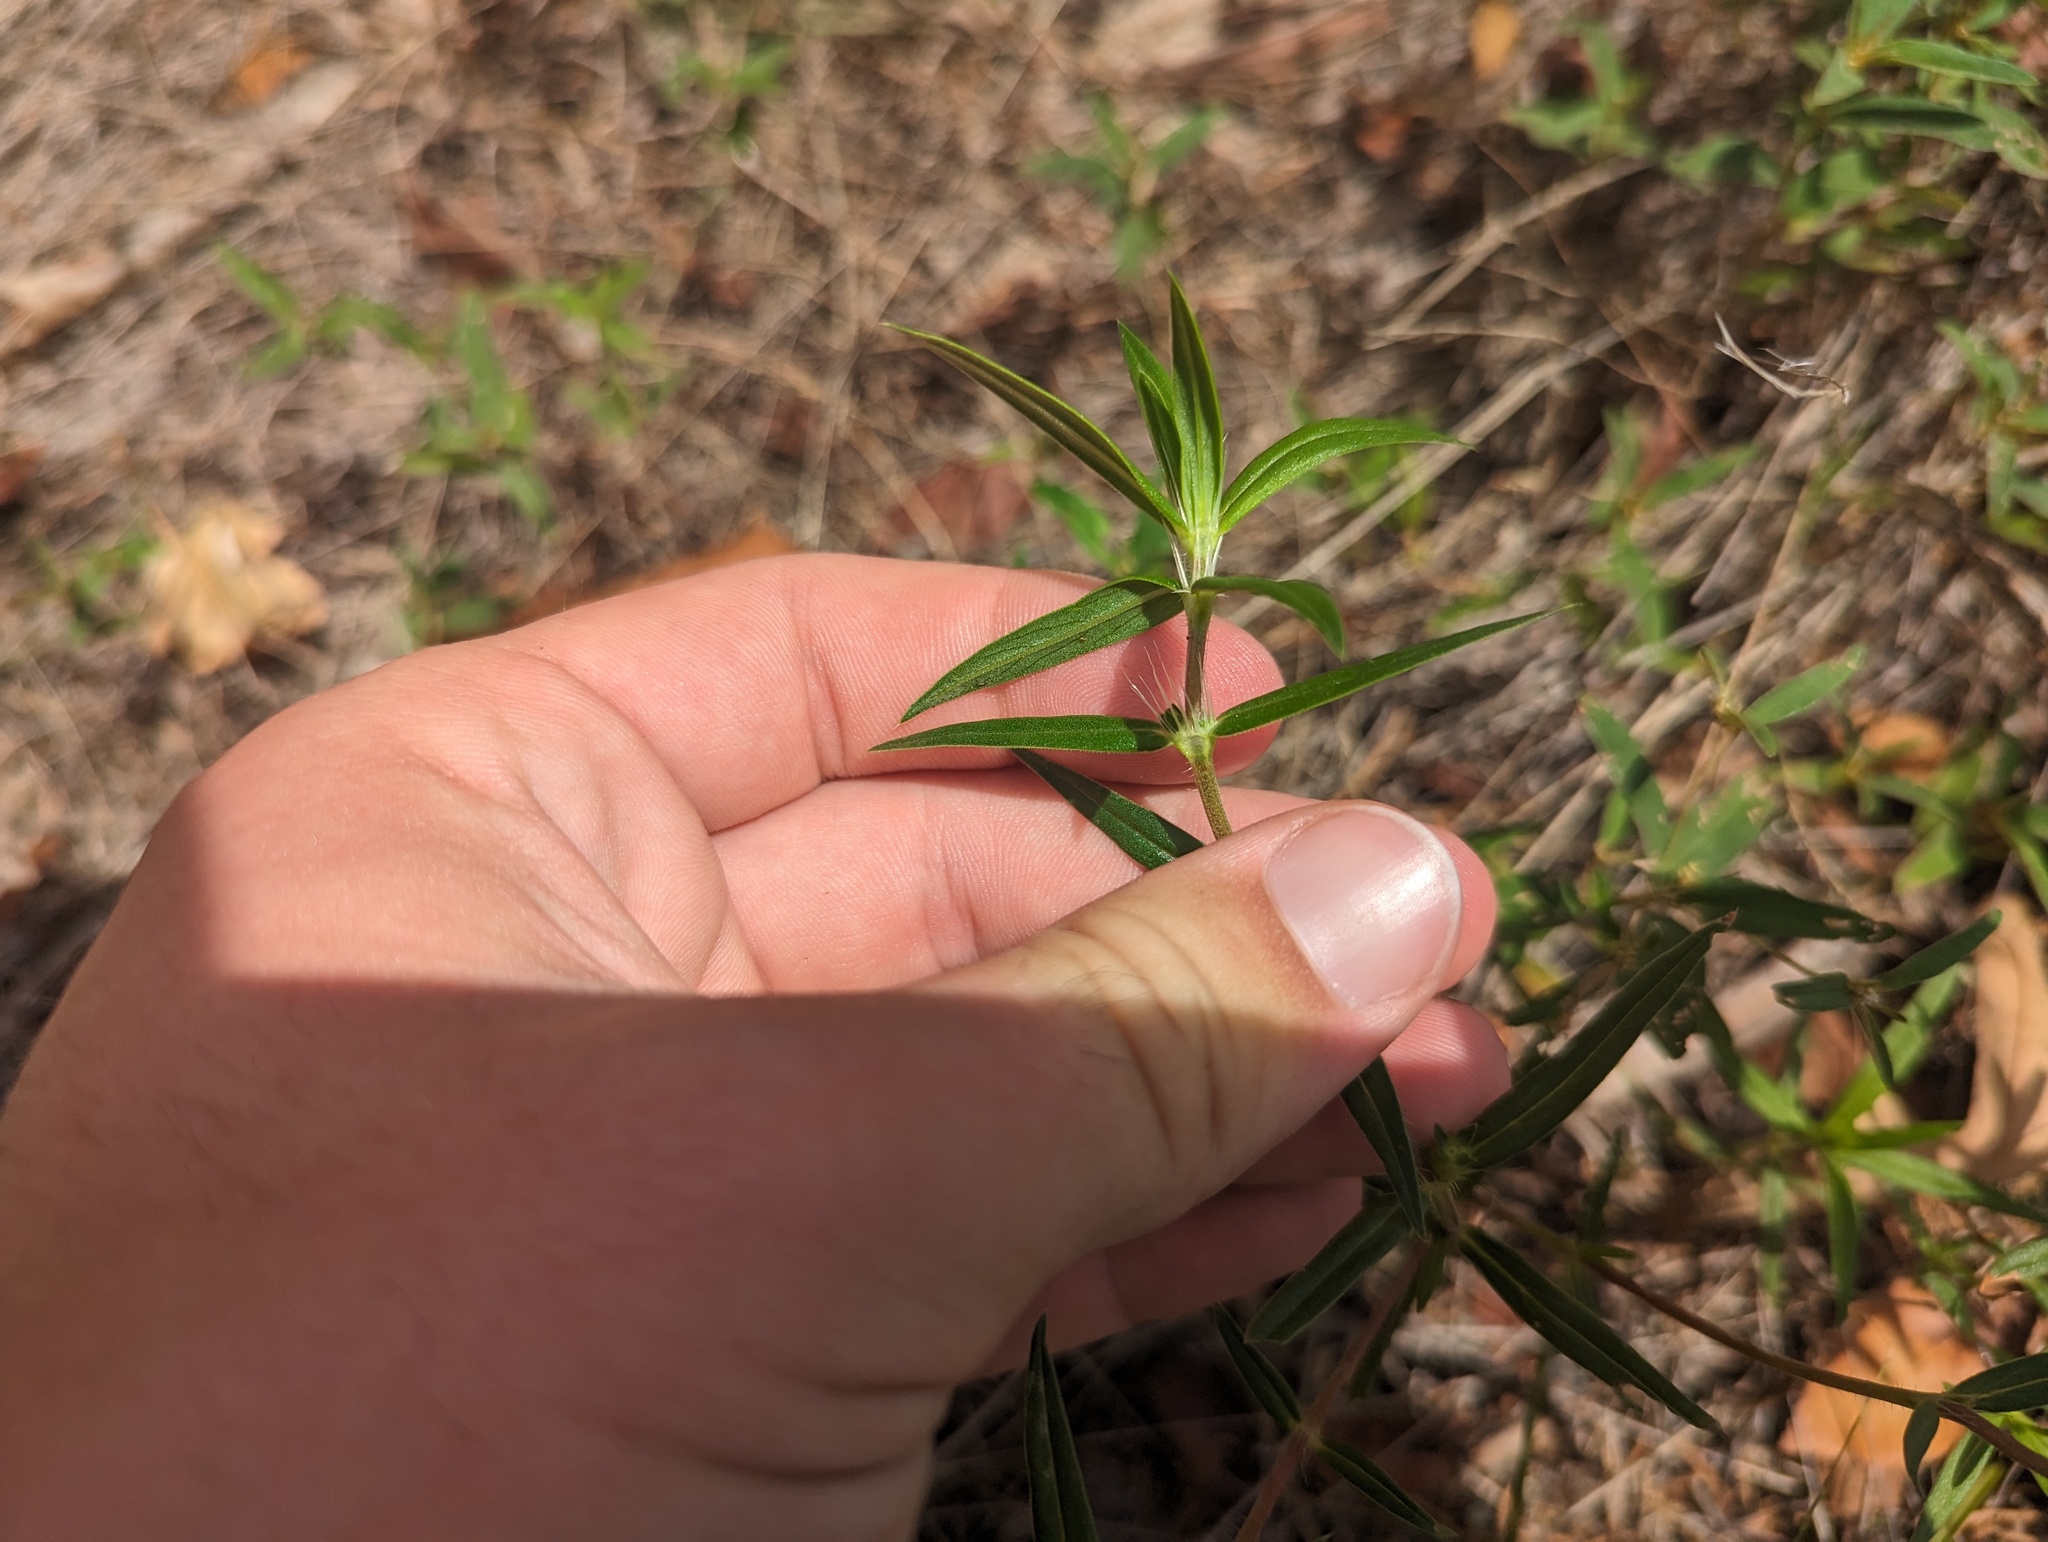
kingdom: Plantae
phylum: Tracheophyta
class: Magnoliopsida
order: Gentianales
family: Rubiaceae
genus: Hexasepalum
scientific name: Hexasepalum teres
